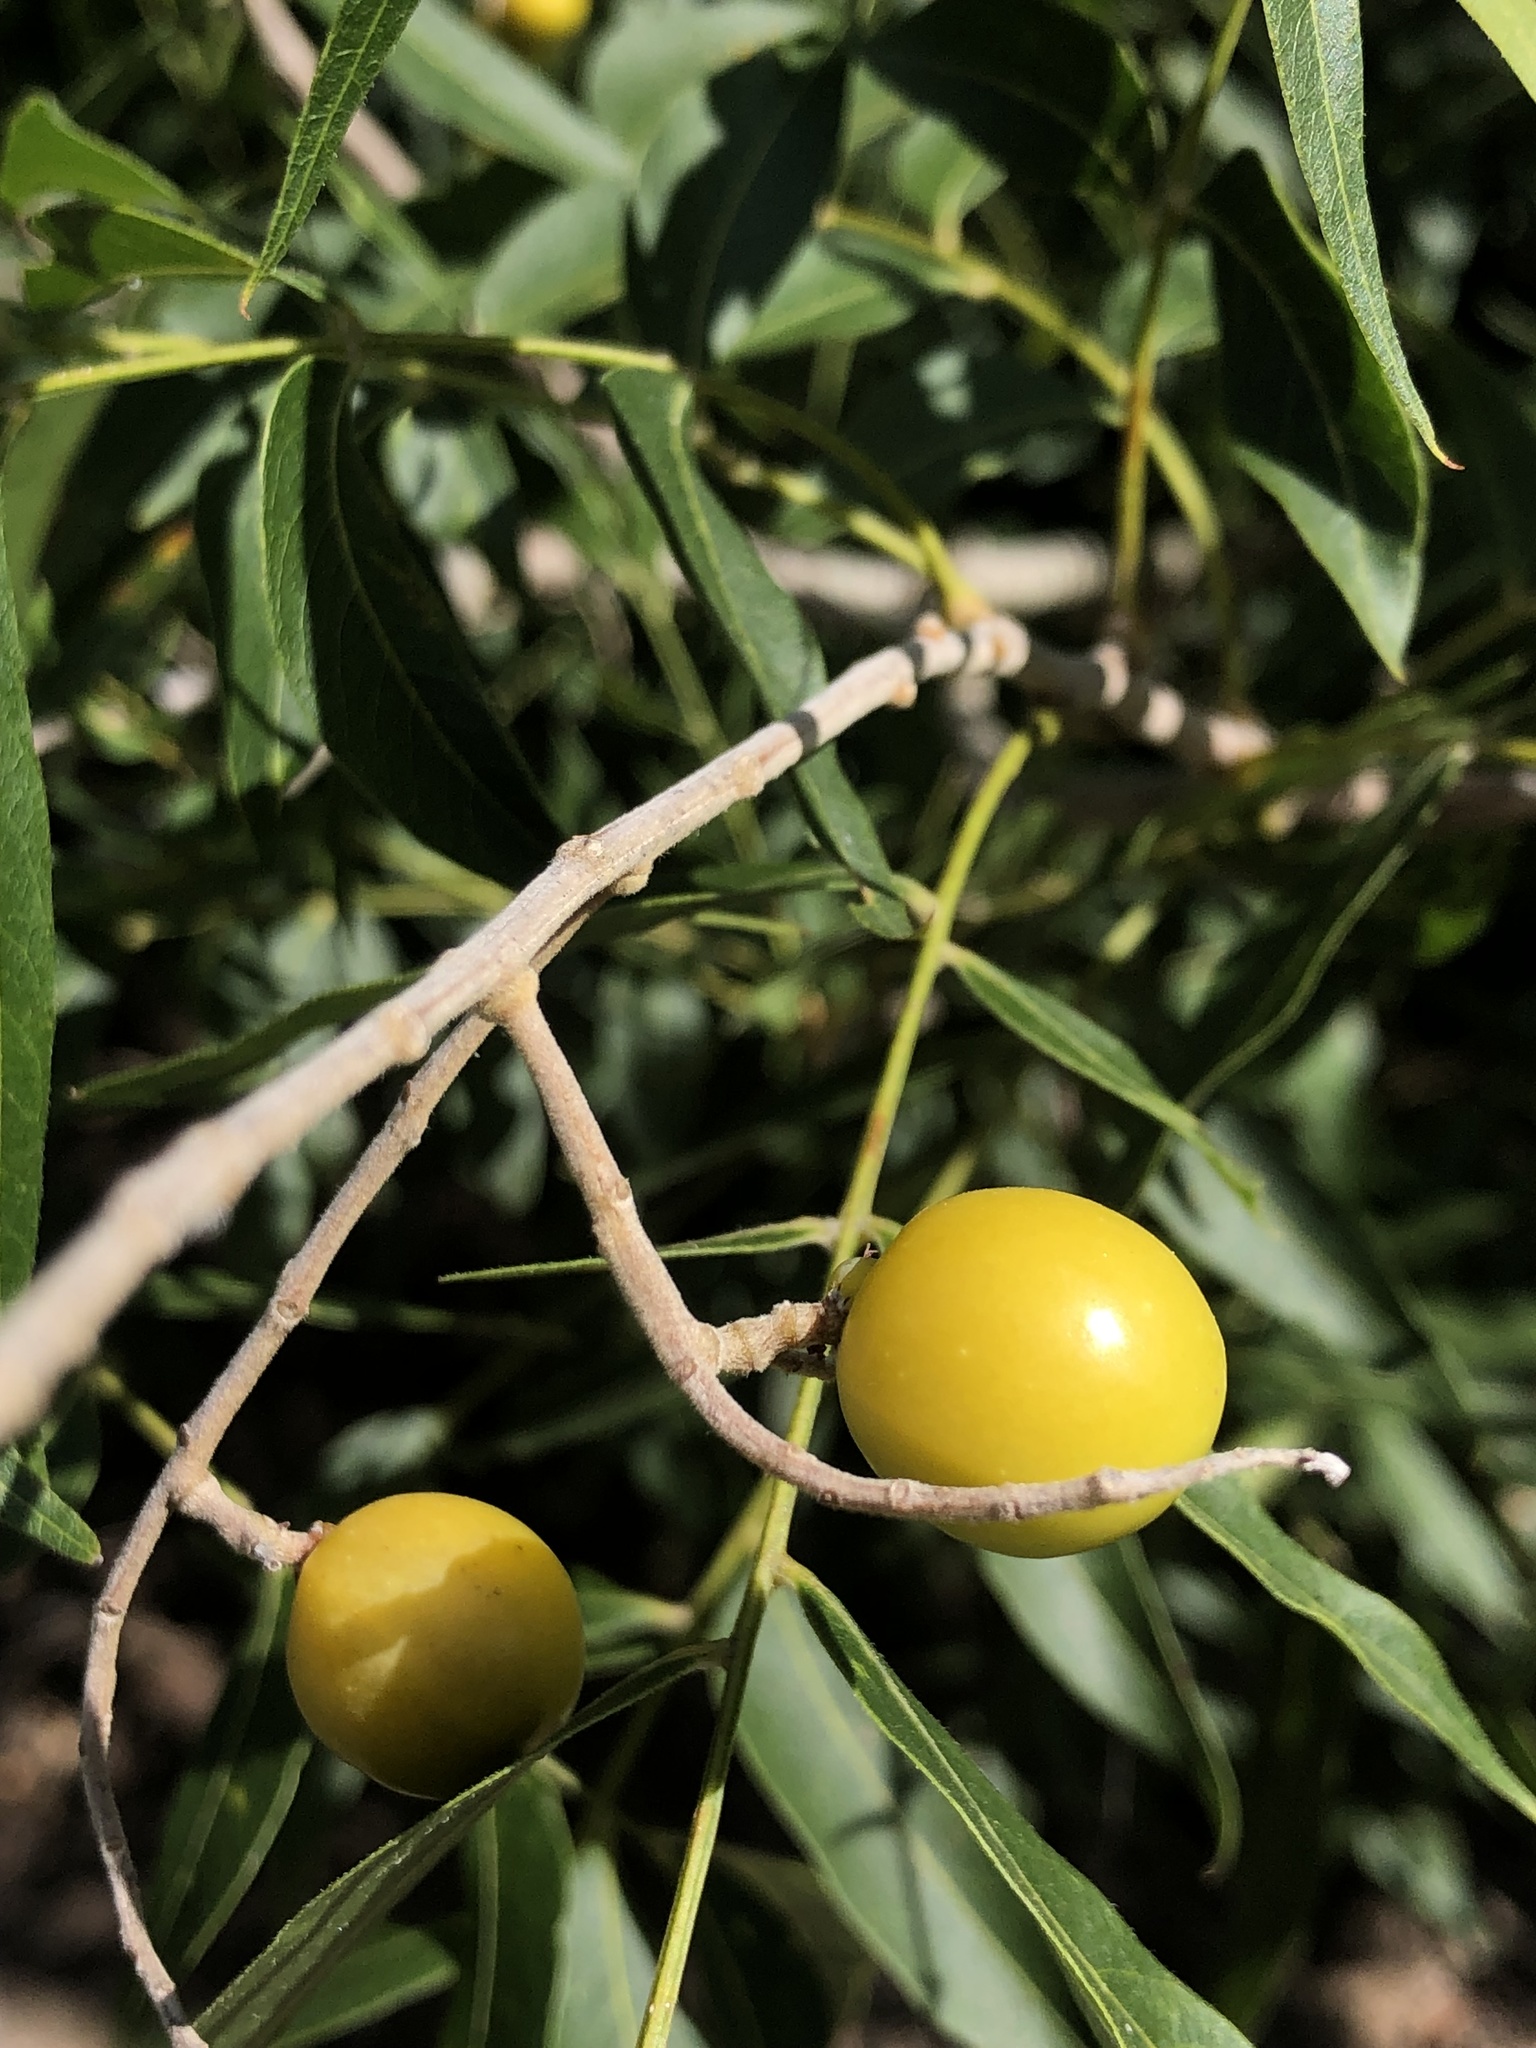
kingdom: Plantae
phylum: Tracheophyta
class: Magnoliopsida
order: Sapindales
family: Sapindaceae
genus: Sapindus
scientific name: Sapindus drummondii
